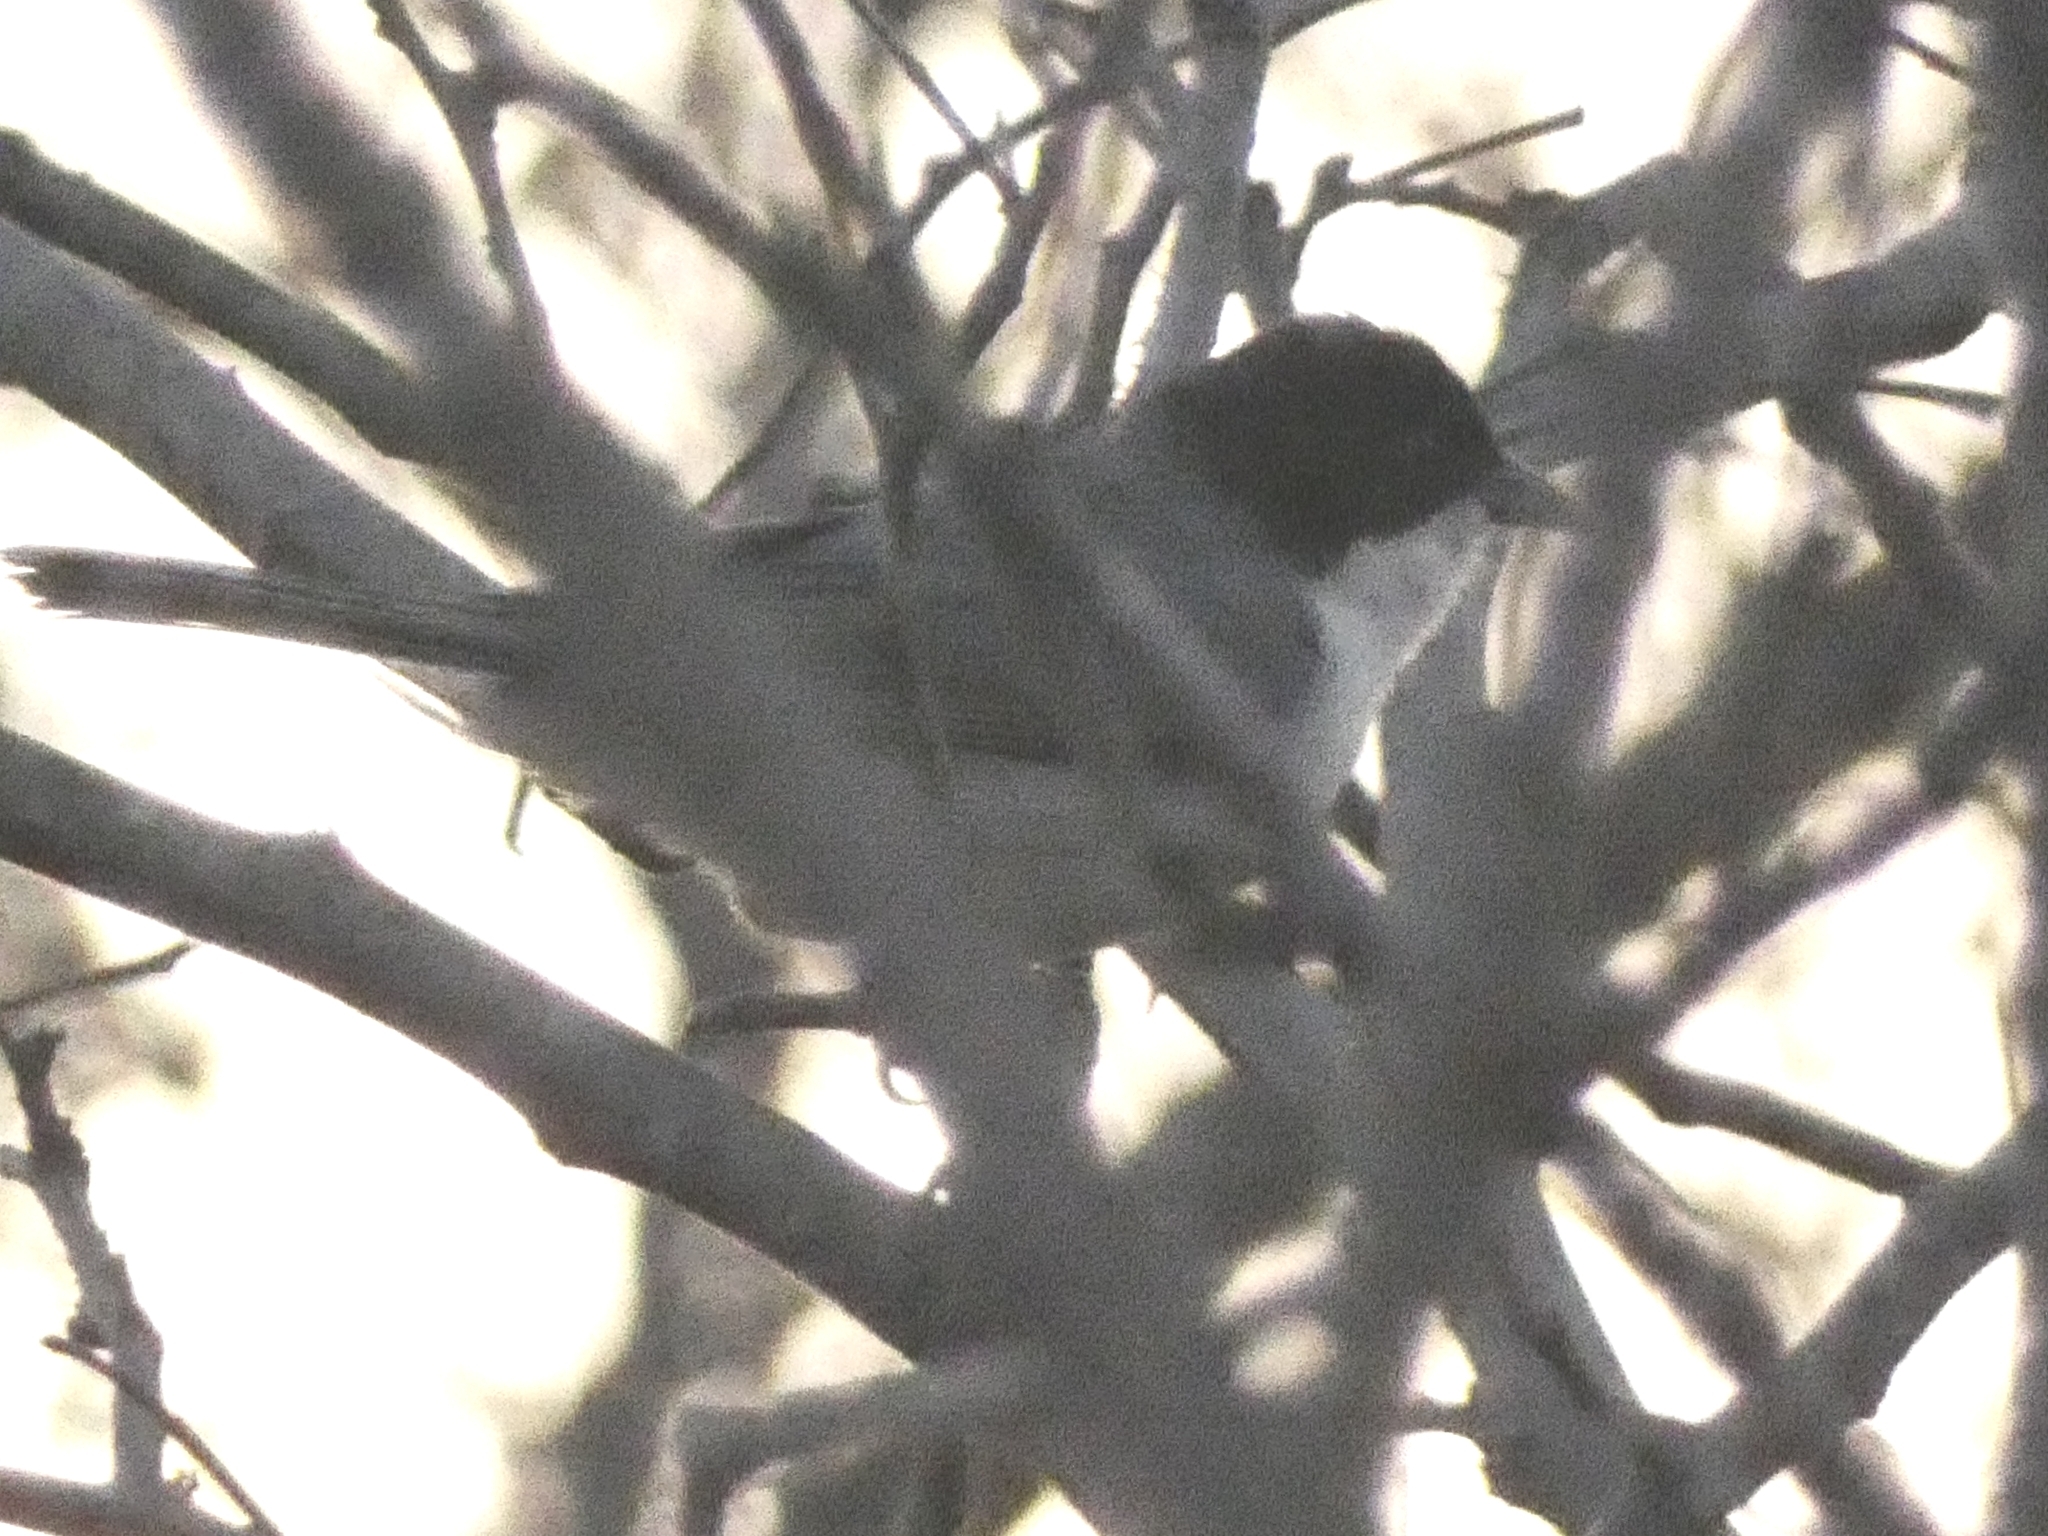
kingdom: Animalia
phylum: Chordata
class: Aves
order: Passeriformes
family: Thraupidae
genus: Microspingus
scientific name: Microspingus melanoleucus
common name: Black-capped warbling-finch
